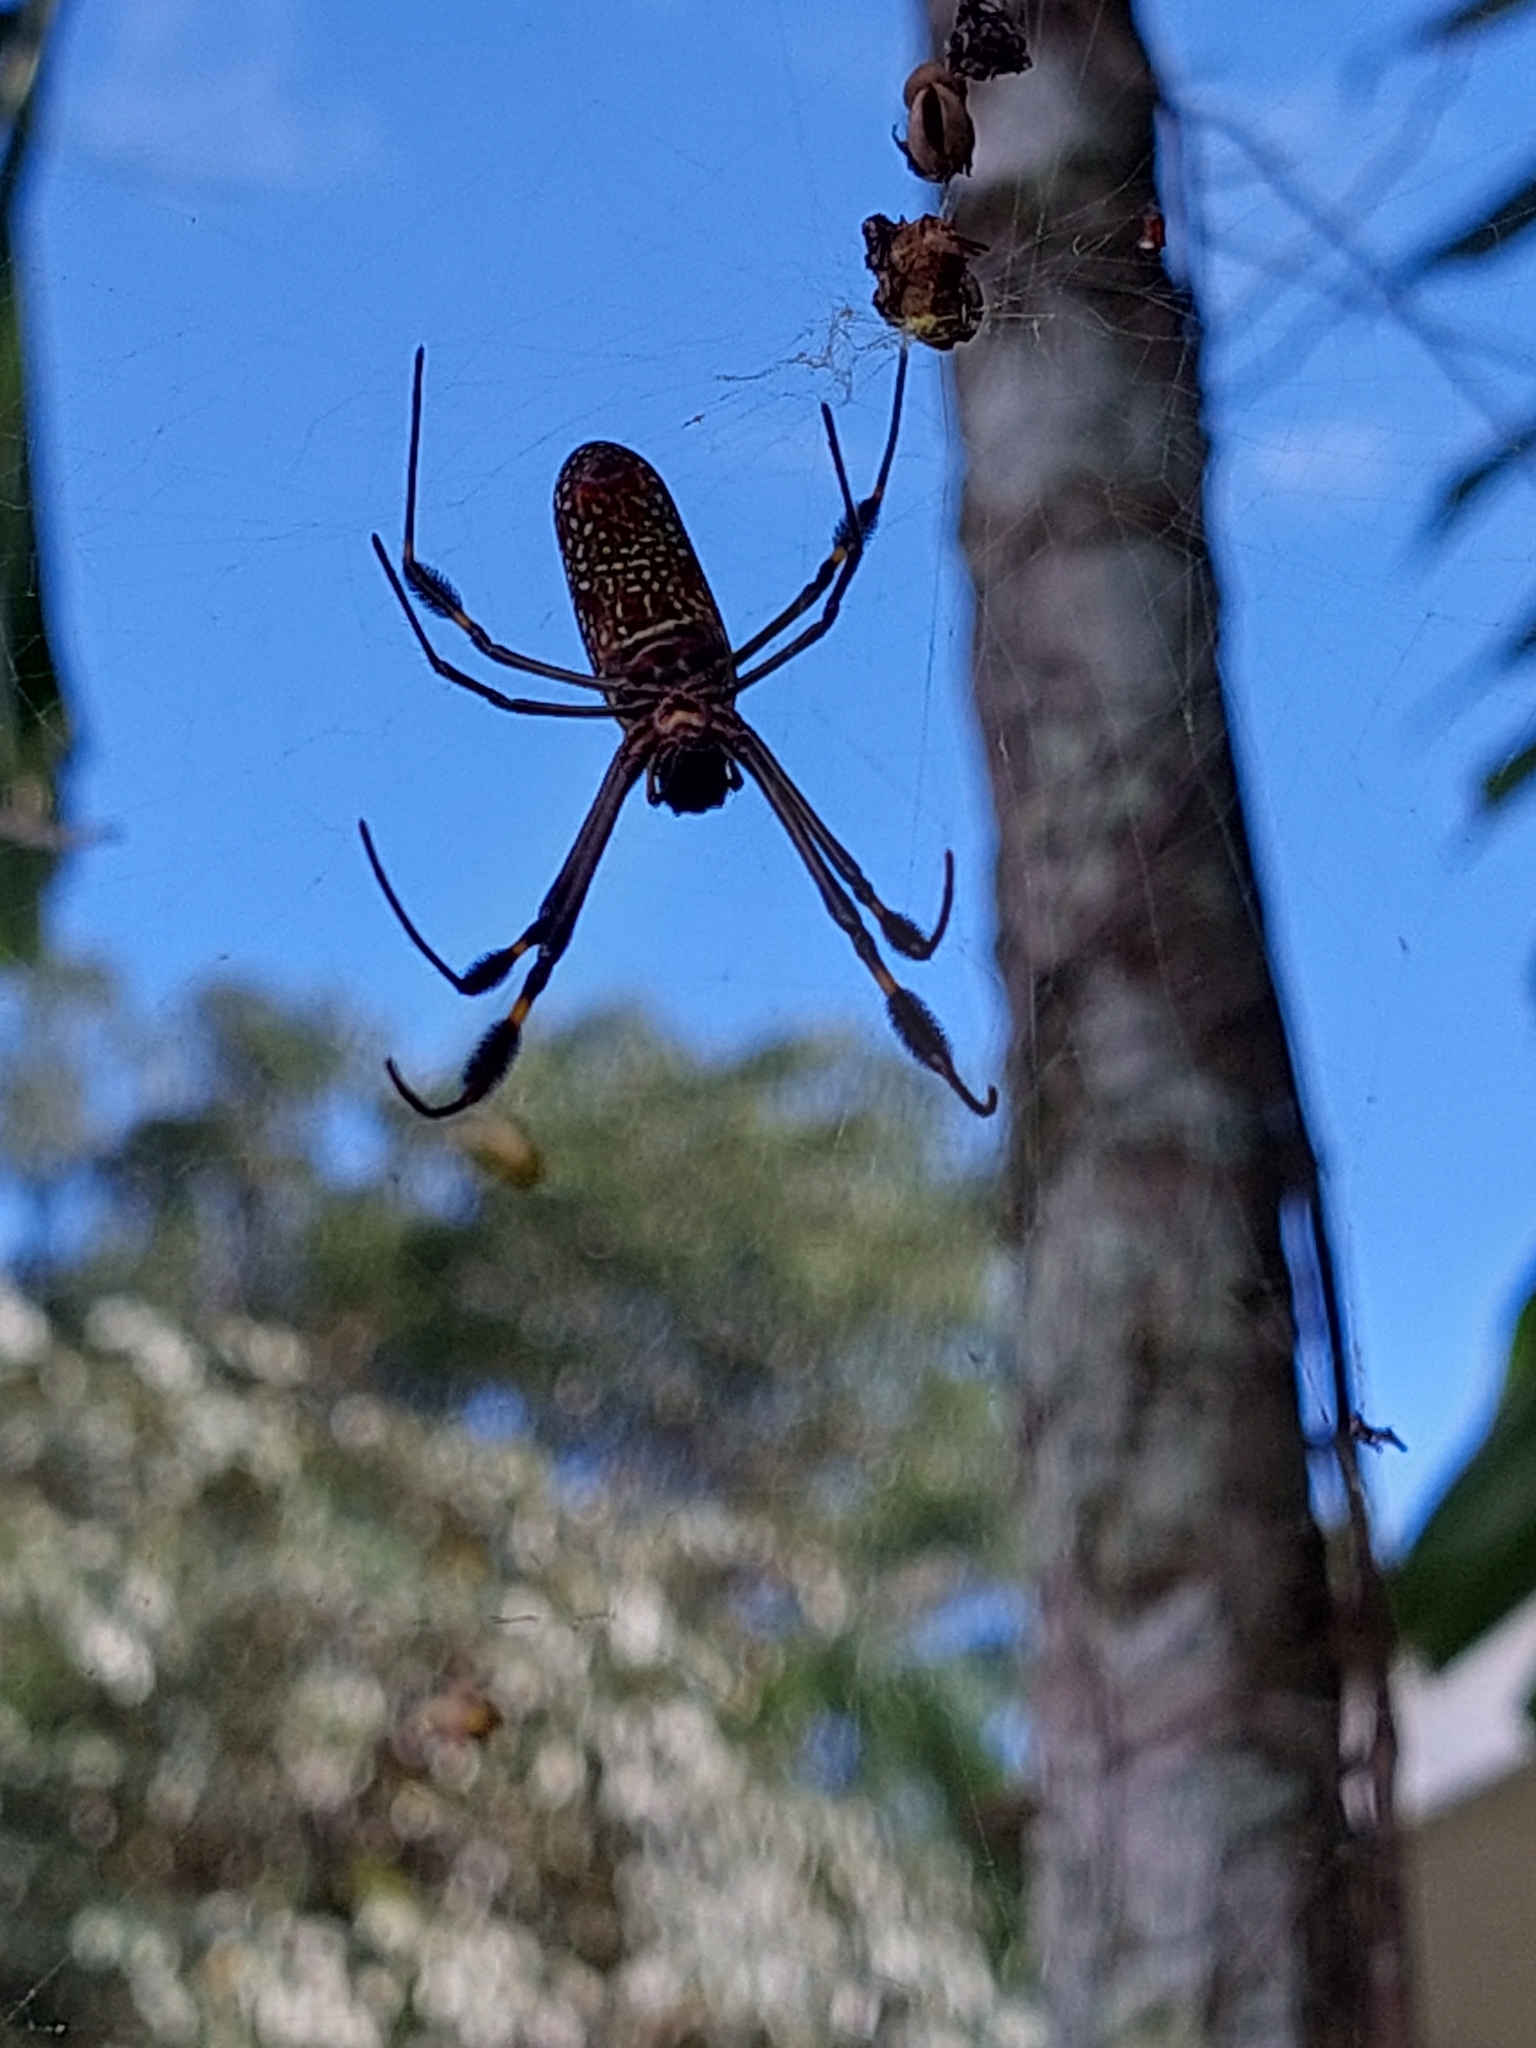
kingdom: Animalia
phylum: Arthropoda
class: Arachnida
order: Araneae
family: Araneidae
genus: Trichonephila
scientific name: Trichonephila clavipes
